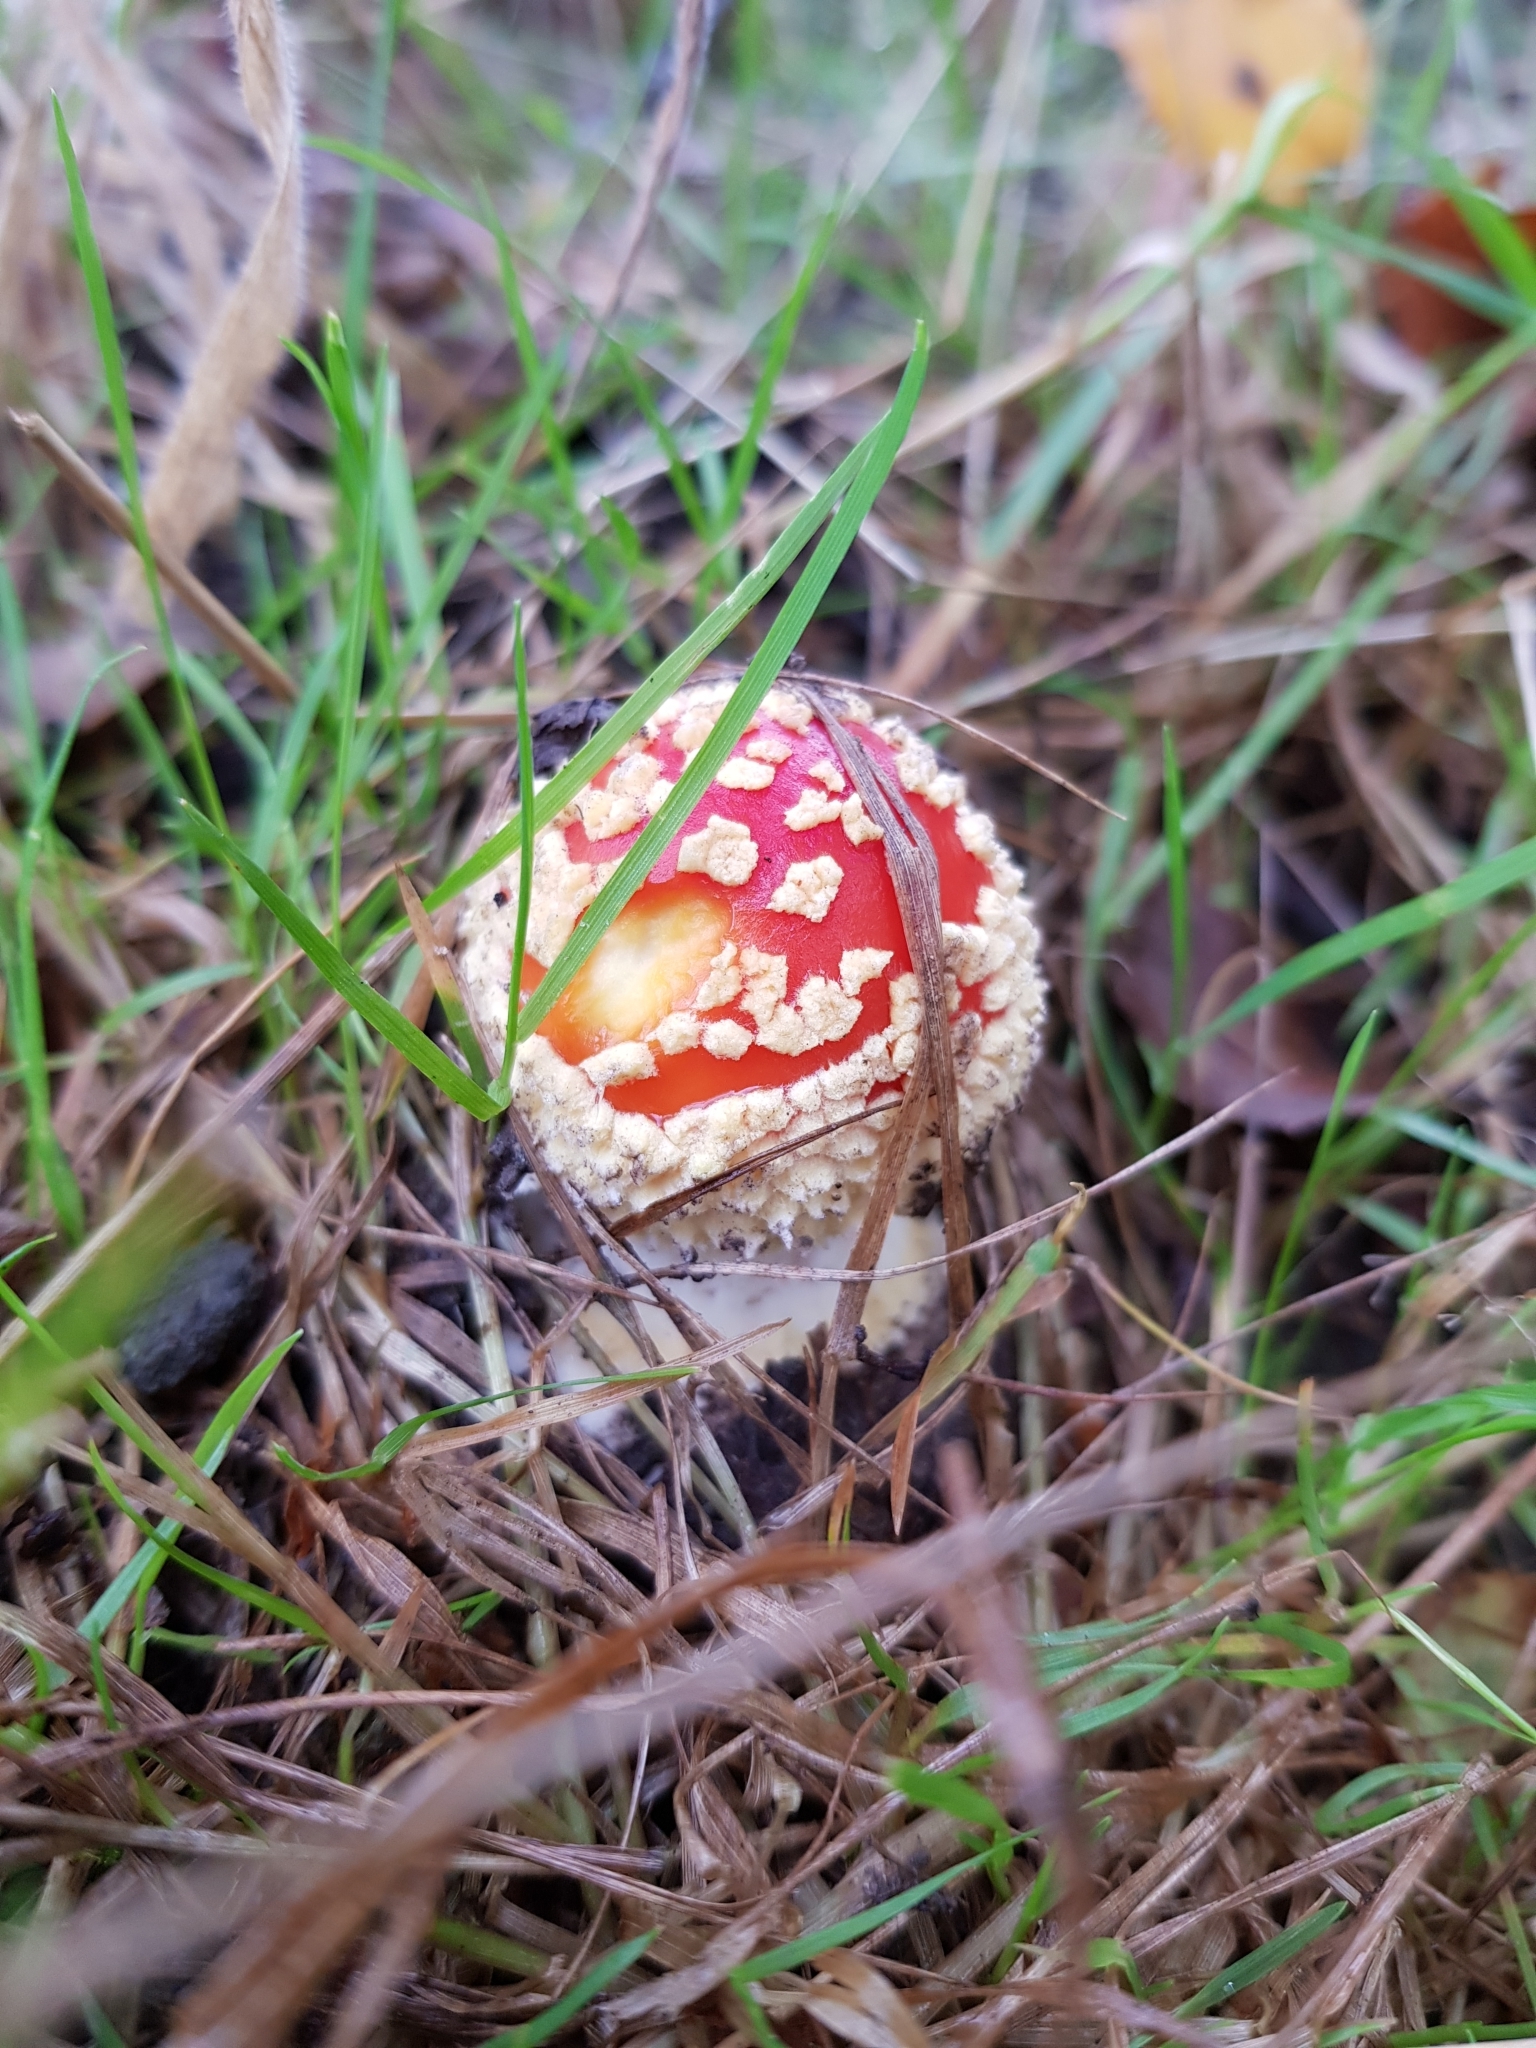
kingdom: Fungi
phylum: Basidiomycota
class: Agaricomycetes
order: Agaricales
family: Amanitaceae
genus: Amanita
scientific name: Amanita muscaria
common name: Fly agaric
